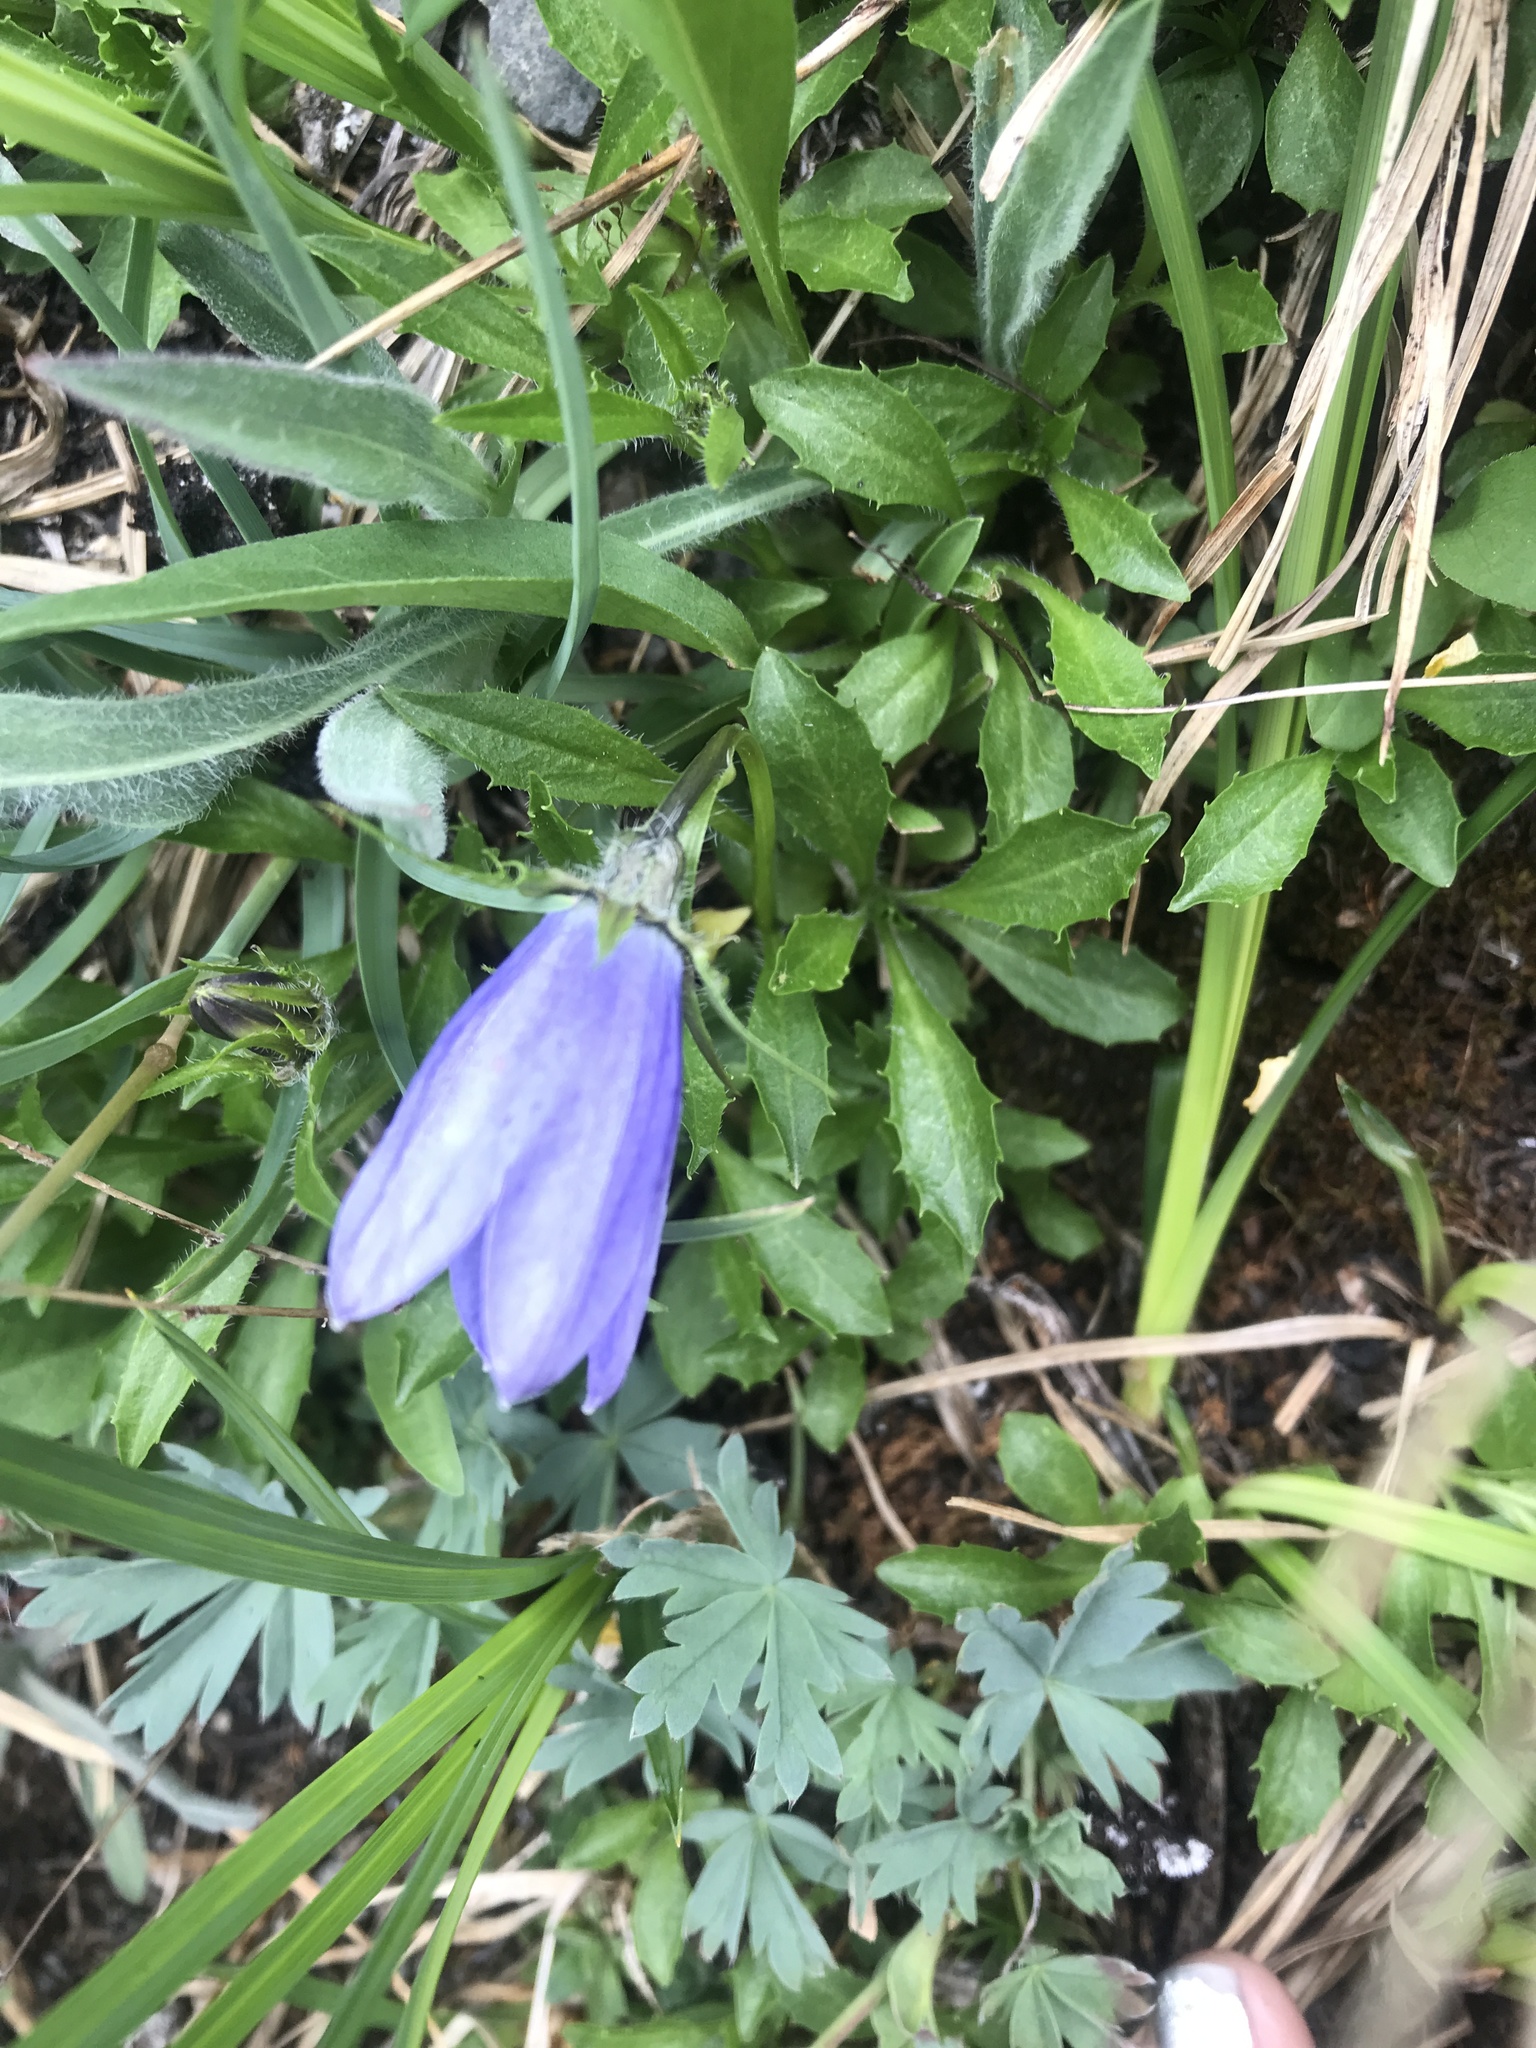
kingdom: Plantae
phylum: Tracheophyta
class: Magnoliopsida
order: Asterales
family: Campanulaceae
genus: Campanula
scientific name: Campanula lasiocarpa
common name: Mountain harebell
